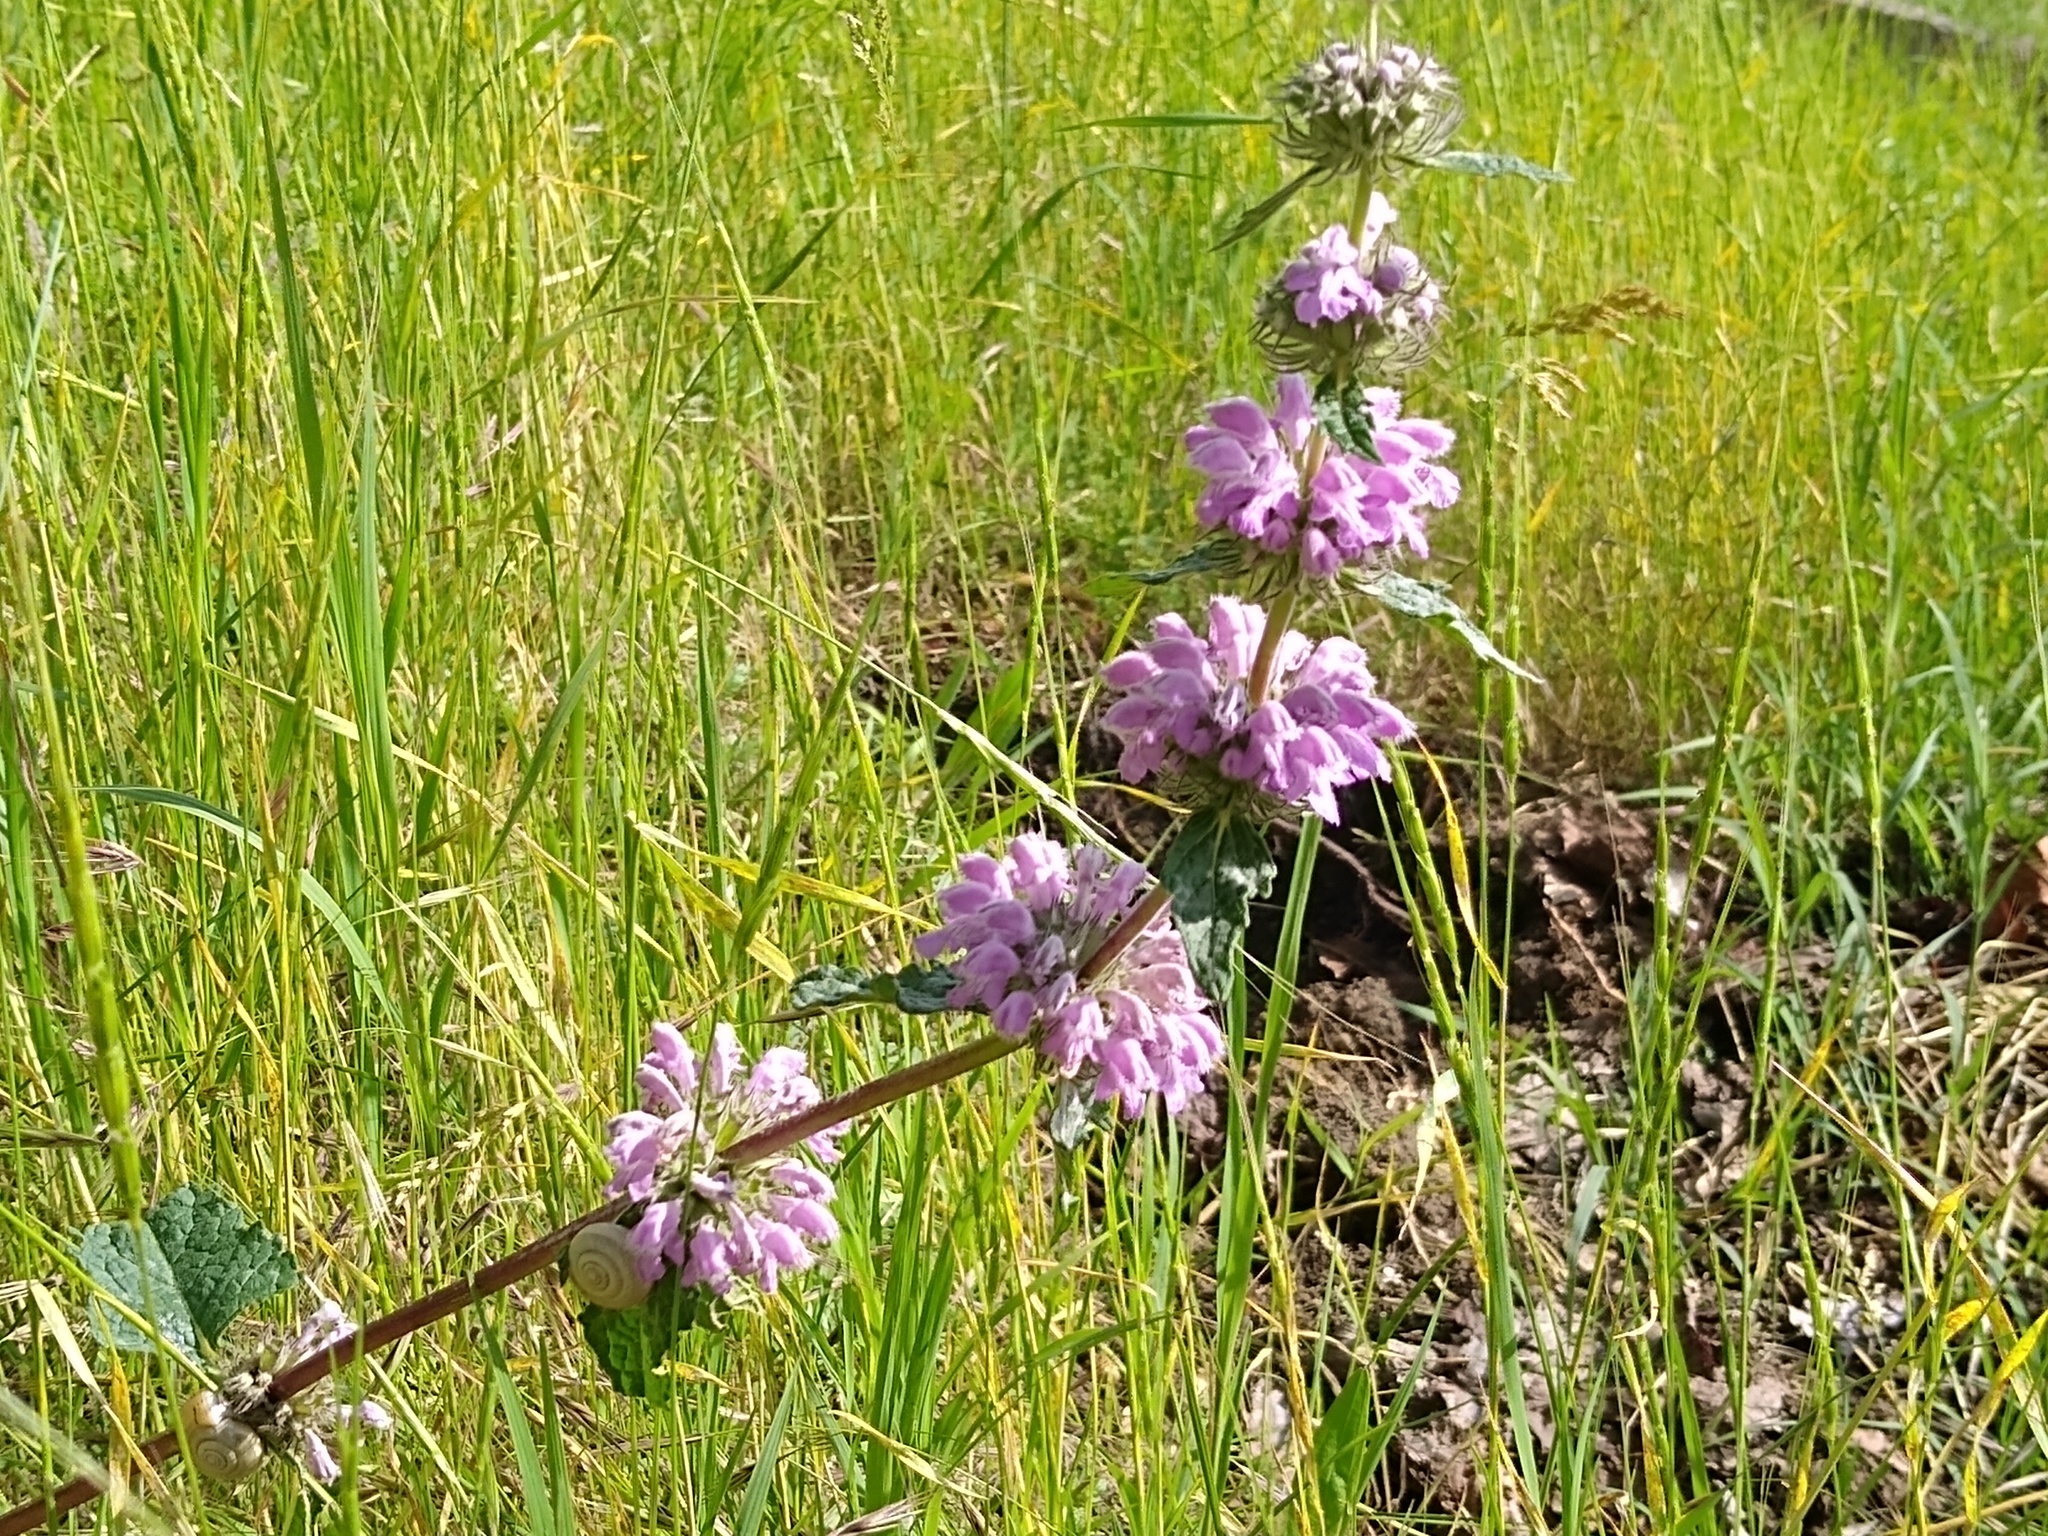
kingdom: Plantae
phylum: Tracheophyta
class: Magnoliopsida
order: Lamiales
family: Lamiaceae
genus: Phlomoides
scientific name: Phlomoides tuberosa
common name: Tuberous jerusalem sage
